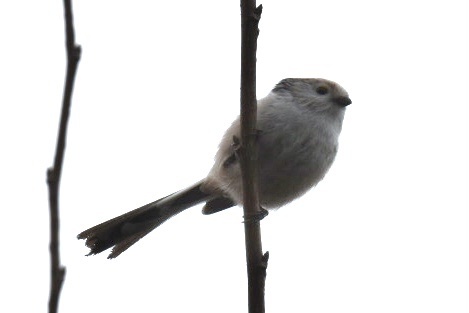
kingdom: Animalia
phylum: Chordata
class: Aves
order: Passeriformes
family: Aegithalidae
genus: Aegithalos
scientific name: Aegithalos caudatus
